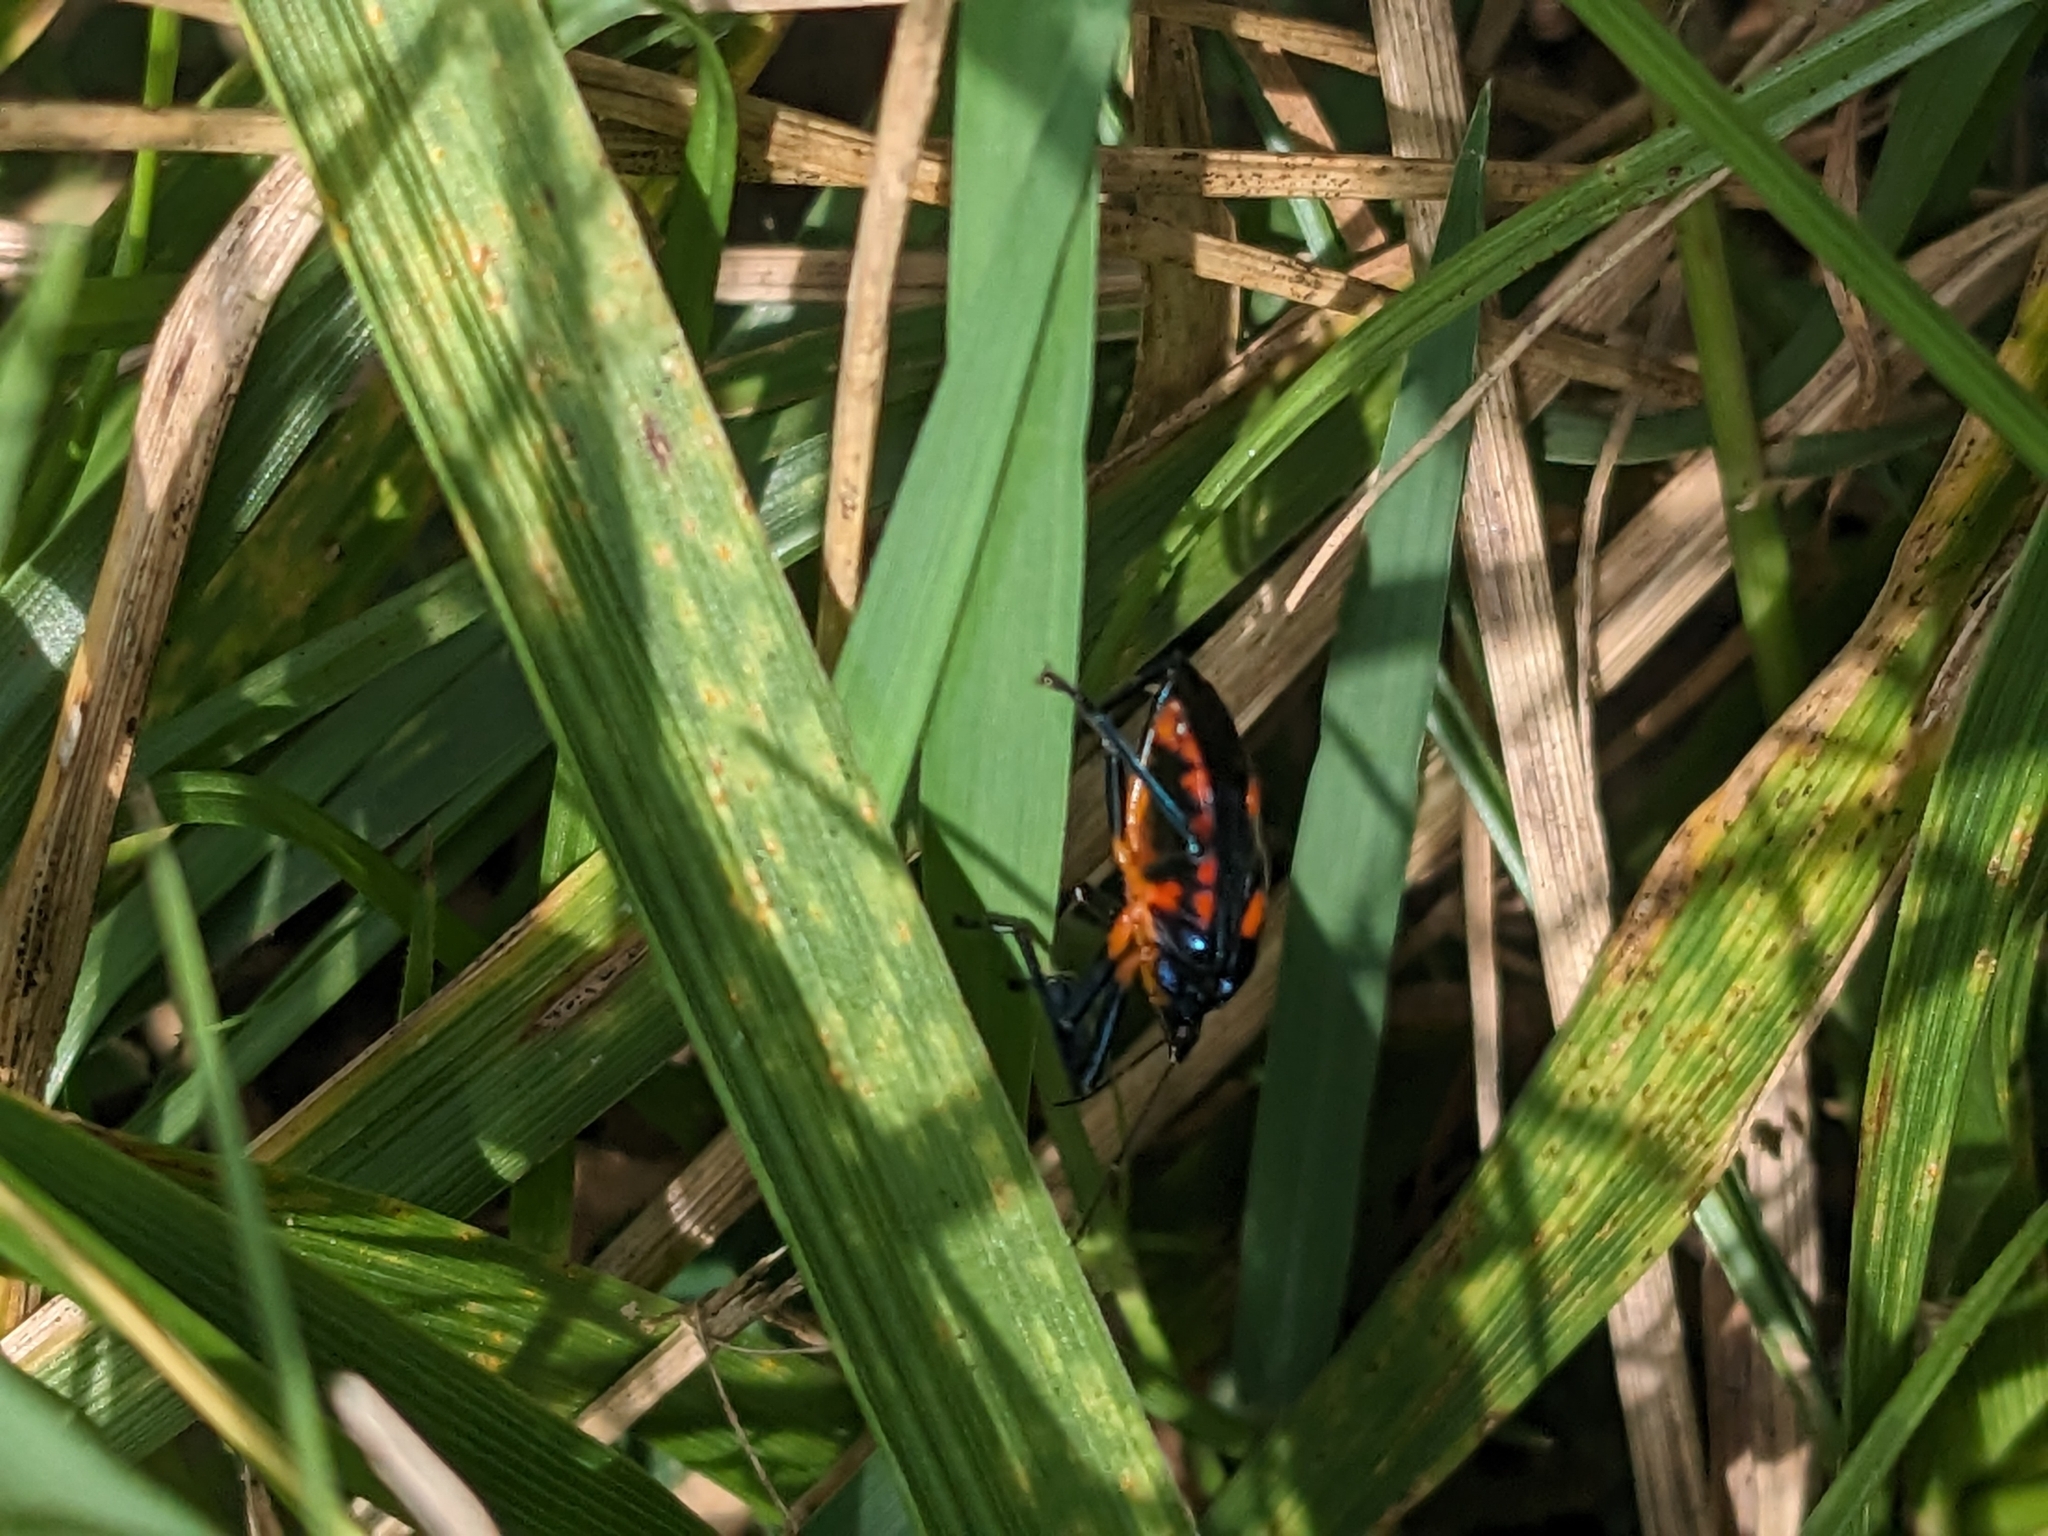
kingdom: Animalia
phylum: Arthropoda
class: Insecta
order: Hemiptera
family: Pentatomidae
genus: Euthyrhynchus
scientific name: Euthyrhynchus floridanus
